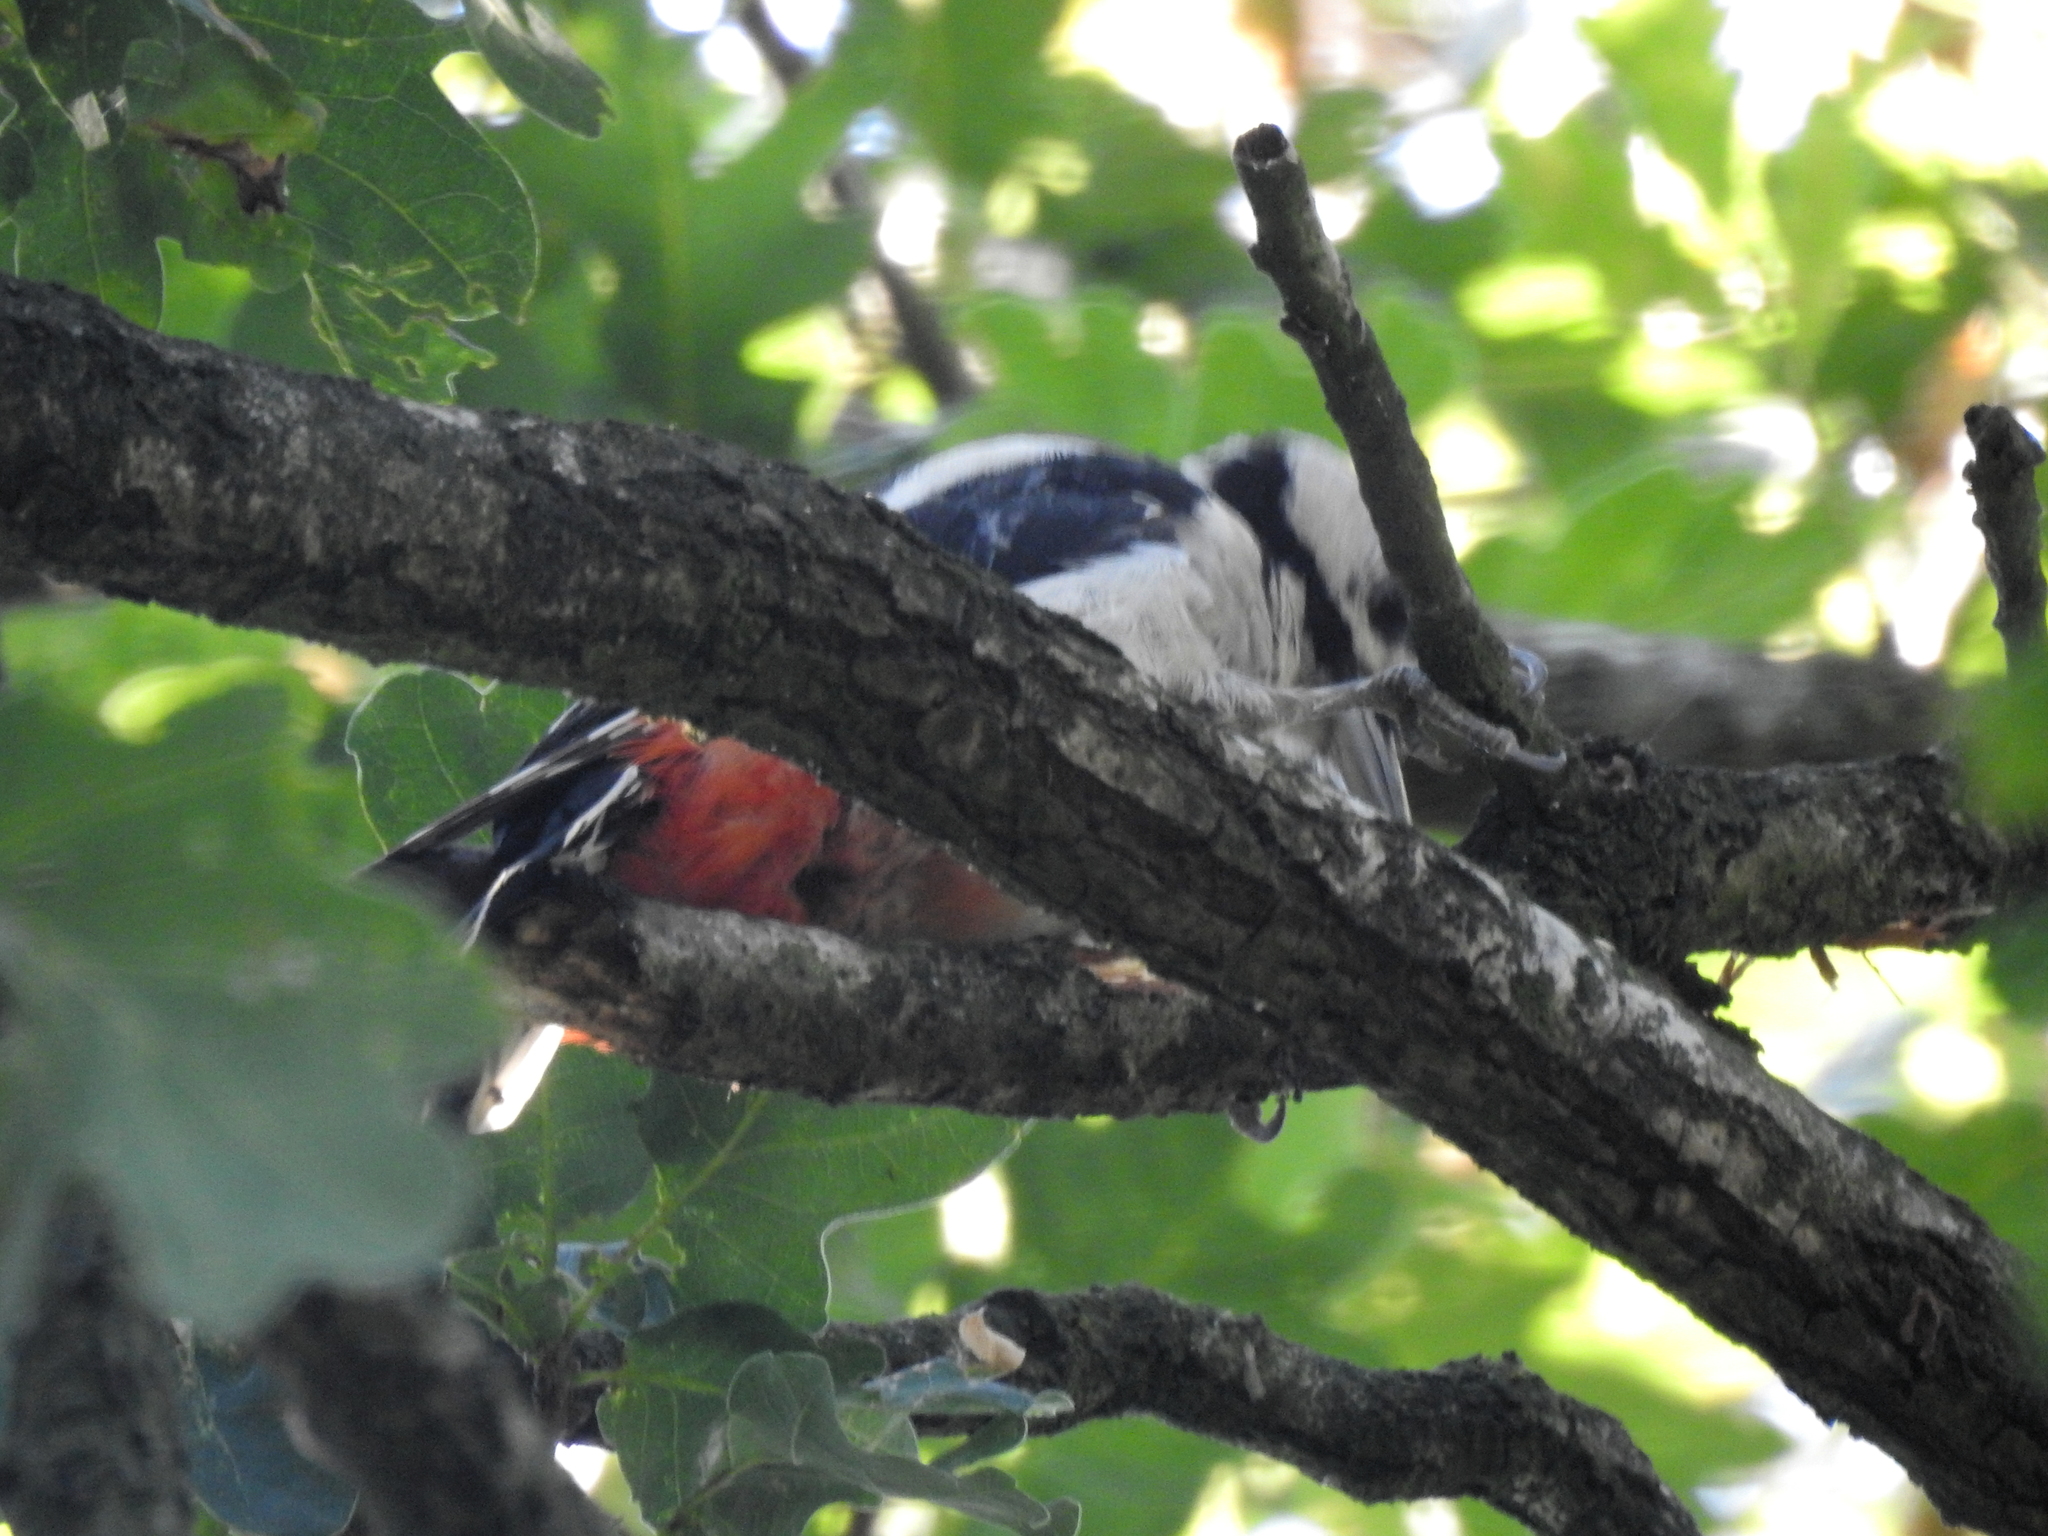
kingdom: Animalia
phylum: Chordata
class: Aves
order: Piciformes
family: Picidae
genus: Dendrocopos
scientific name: Dendrocopos major
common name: Great spotted woodpecker
